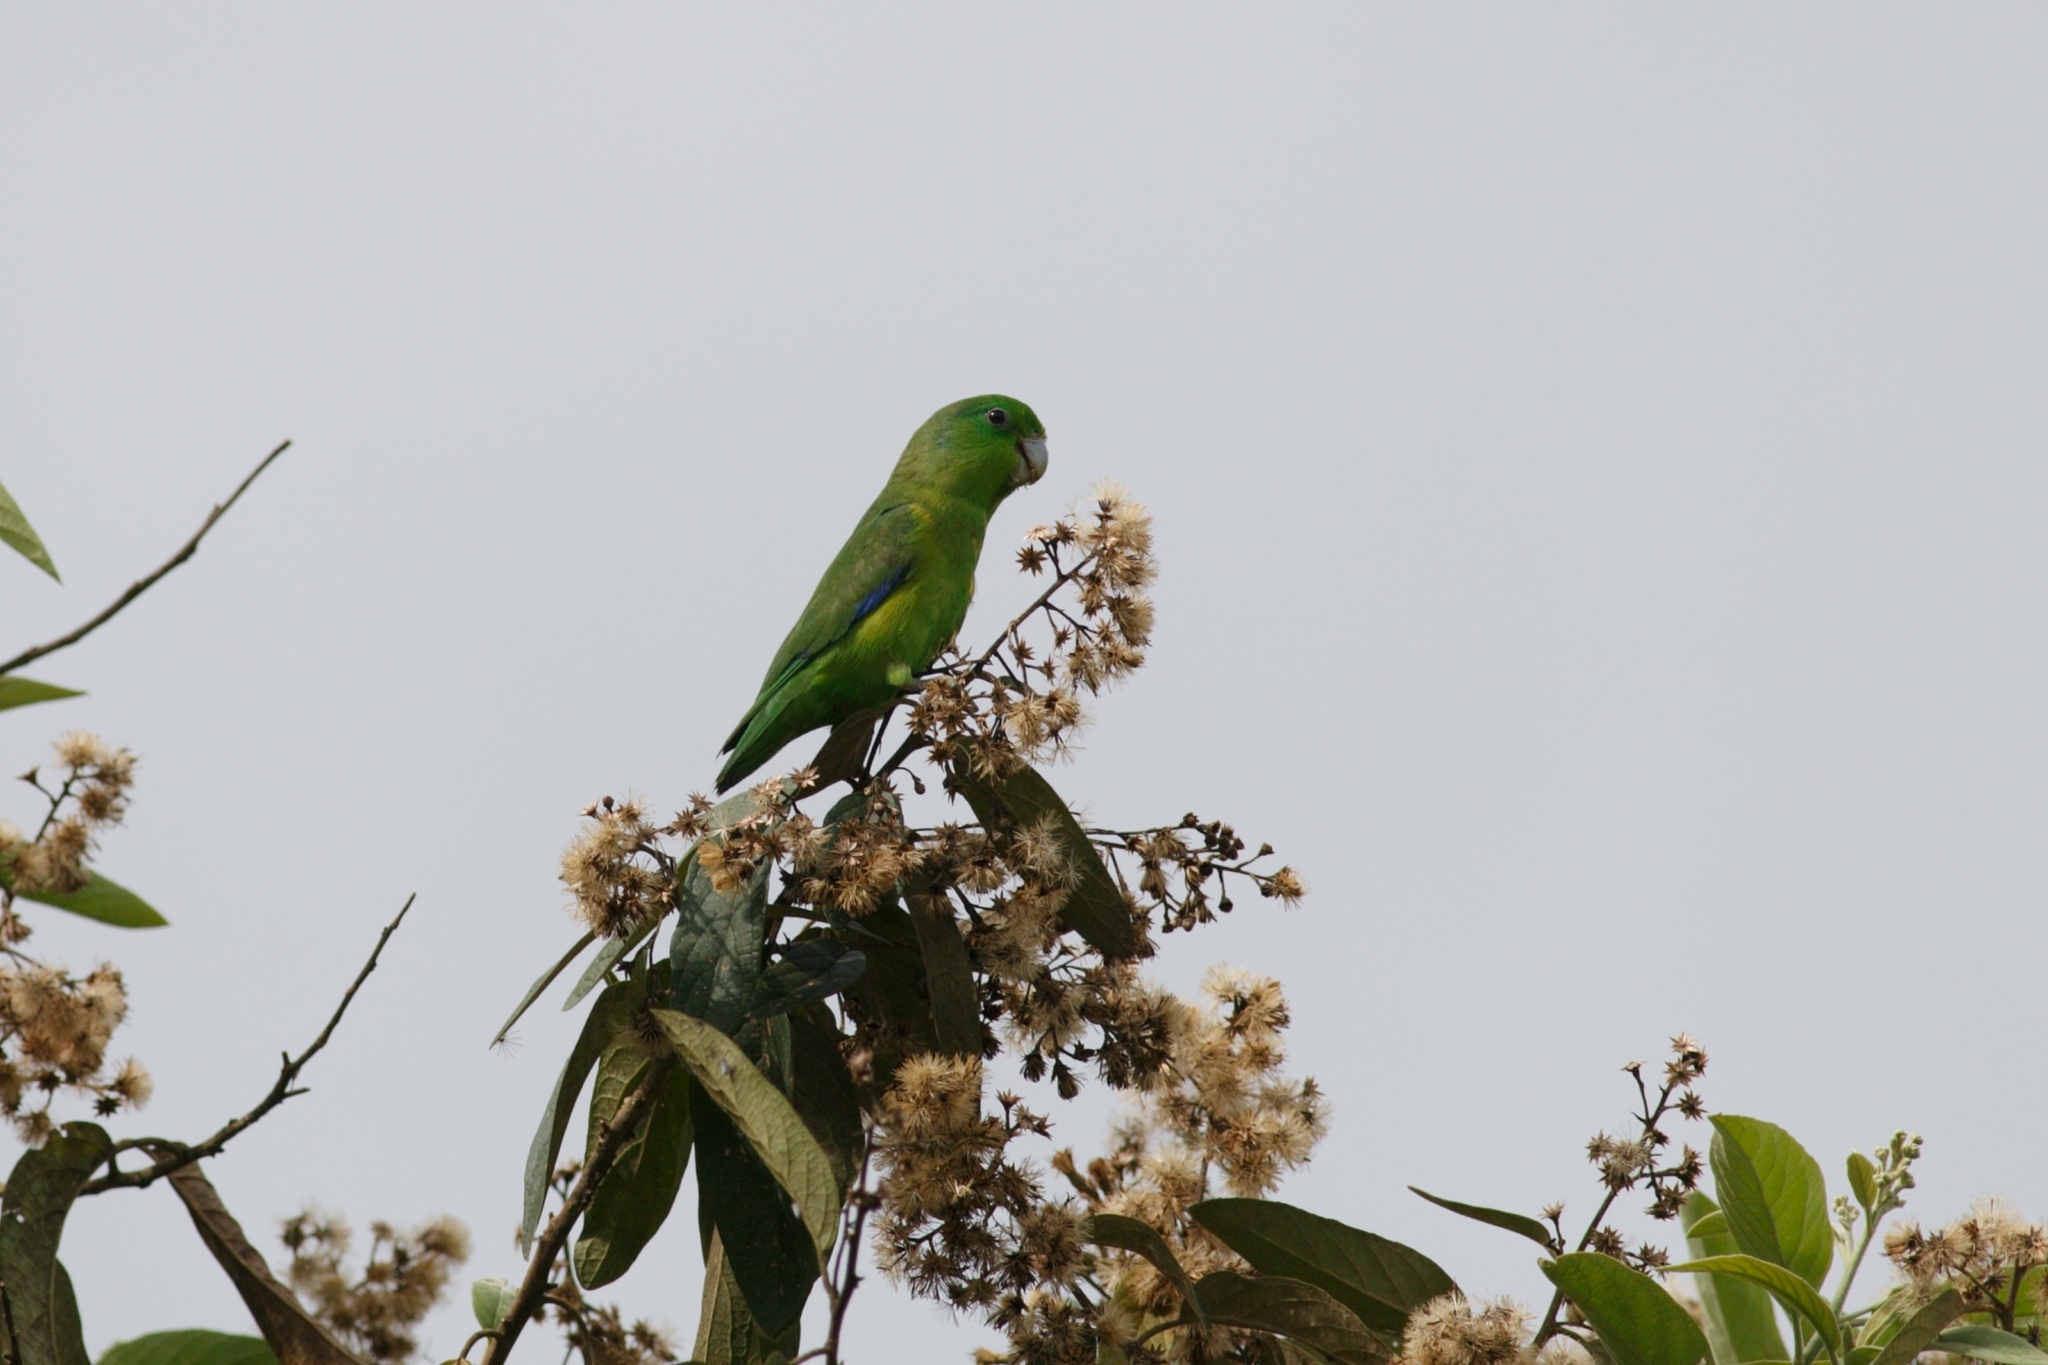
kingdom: Animalia
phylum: Chordata
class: Aves
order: Psittaciformes
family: Psittacidae
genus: Forpus
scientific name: Forpus xanthopterygius
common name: Blue-winged parrotlet
